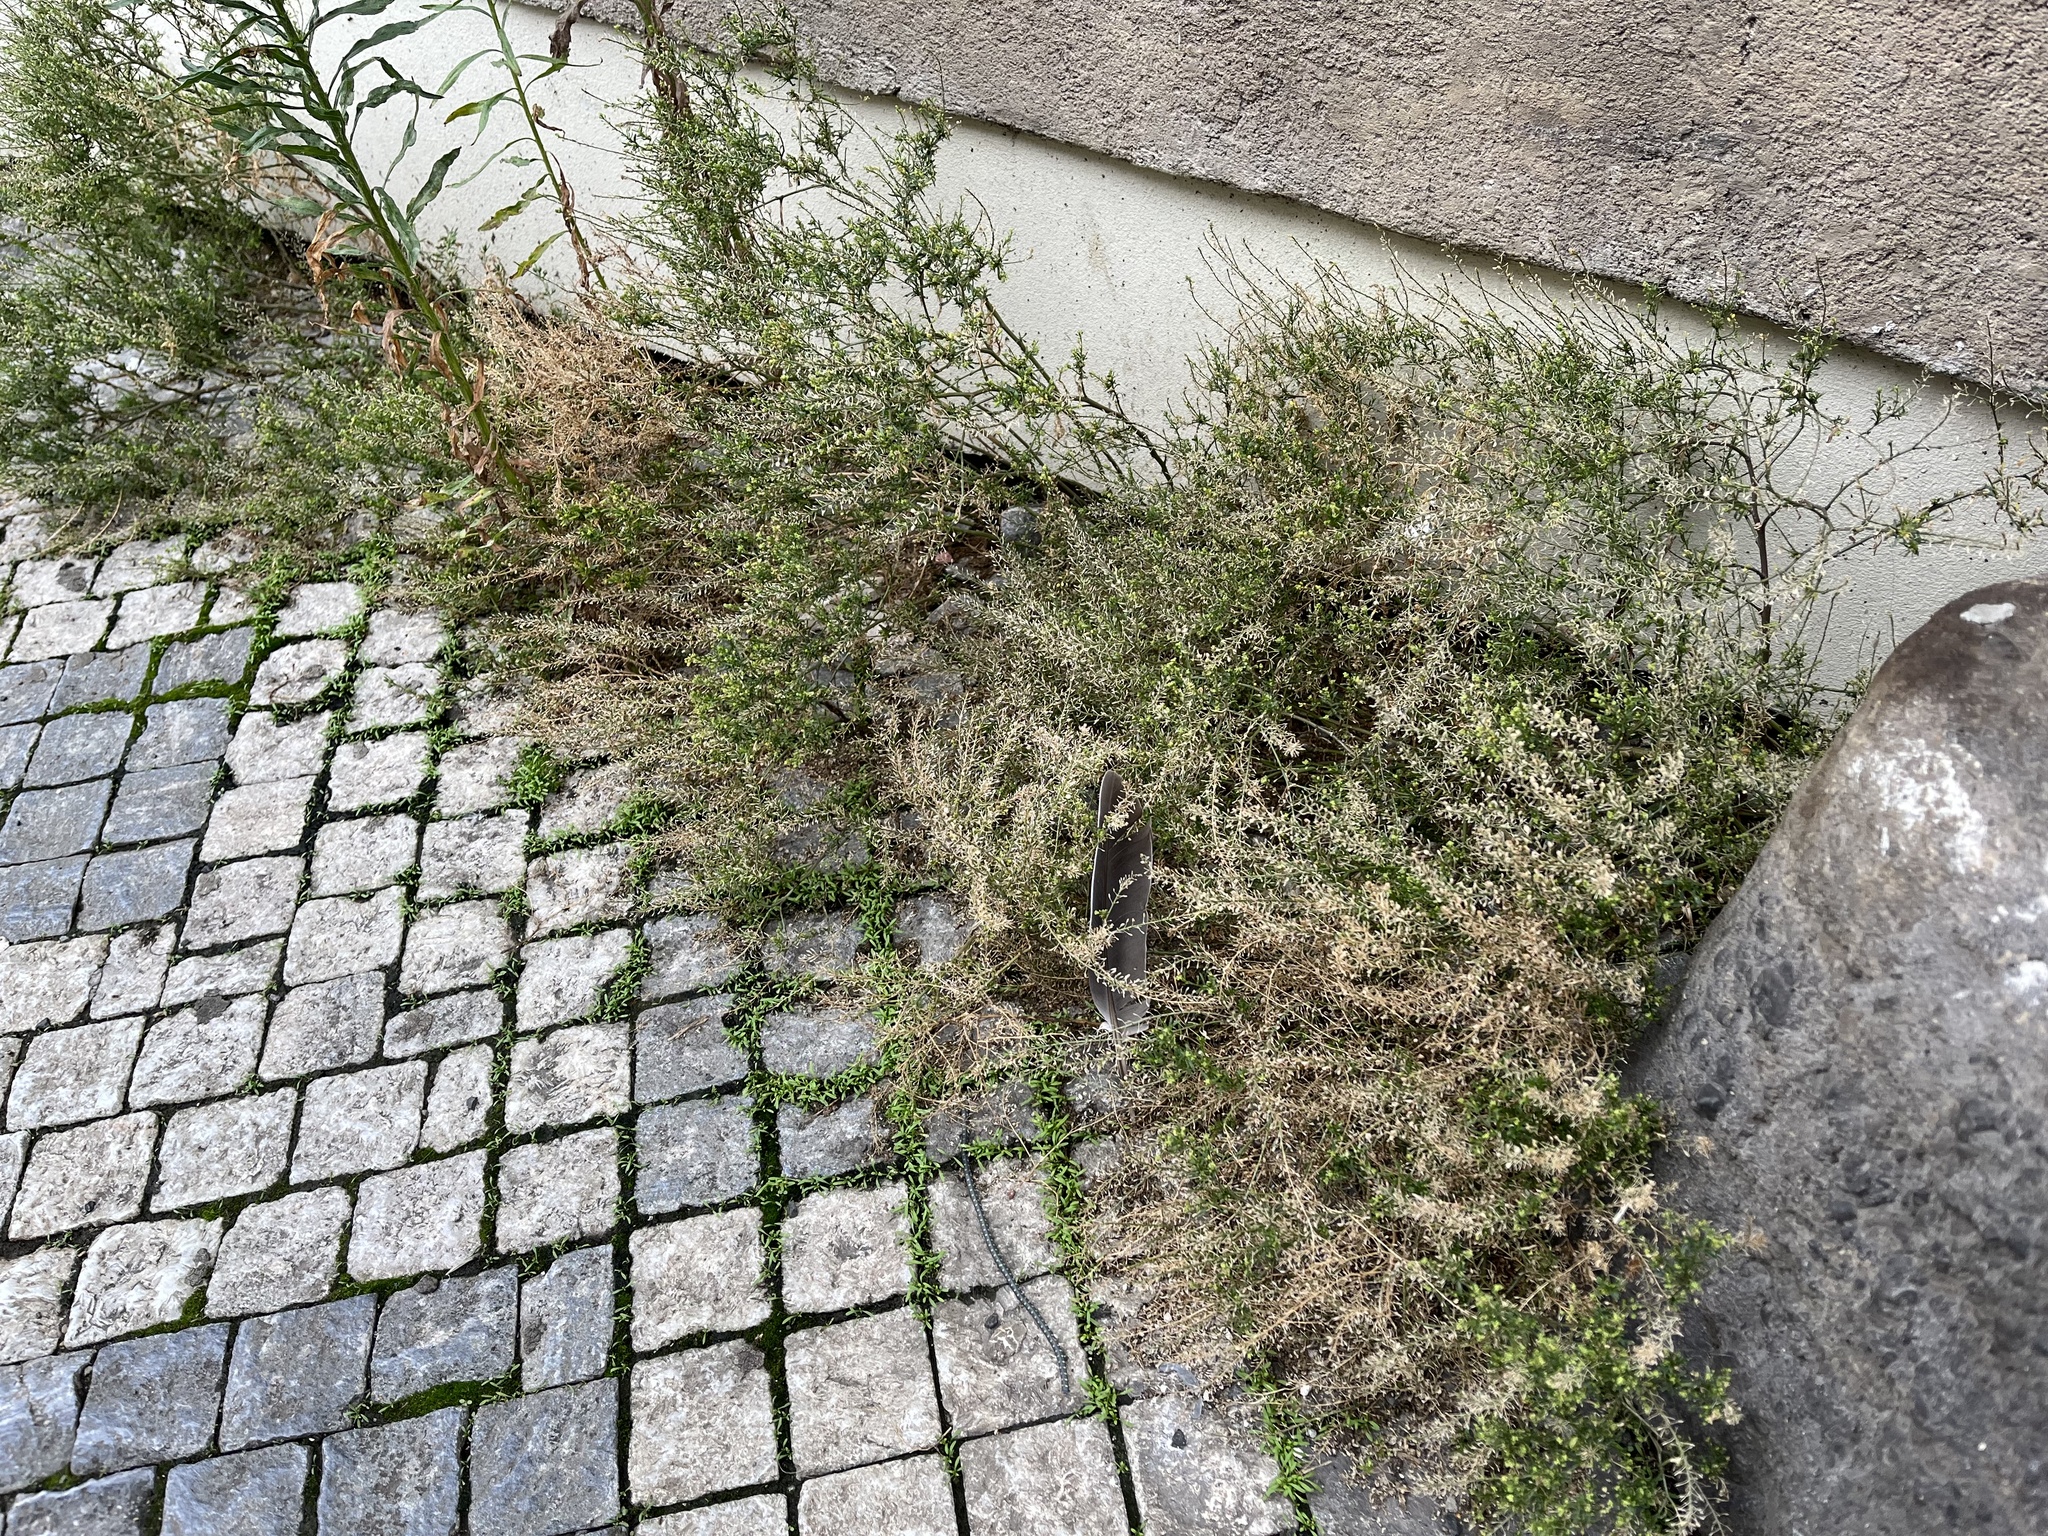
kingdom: Plantae
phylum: Tracheophyta
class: Magnoliopsida
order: Brassicales
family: Brassicaceae
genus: Lepidium
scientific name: Lepidium ruderale
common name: Narrow-leaved pepperwort
